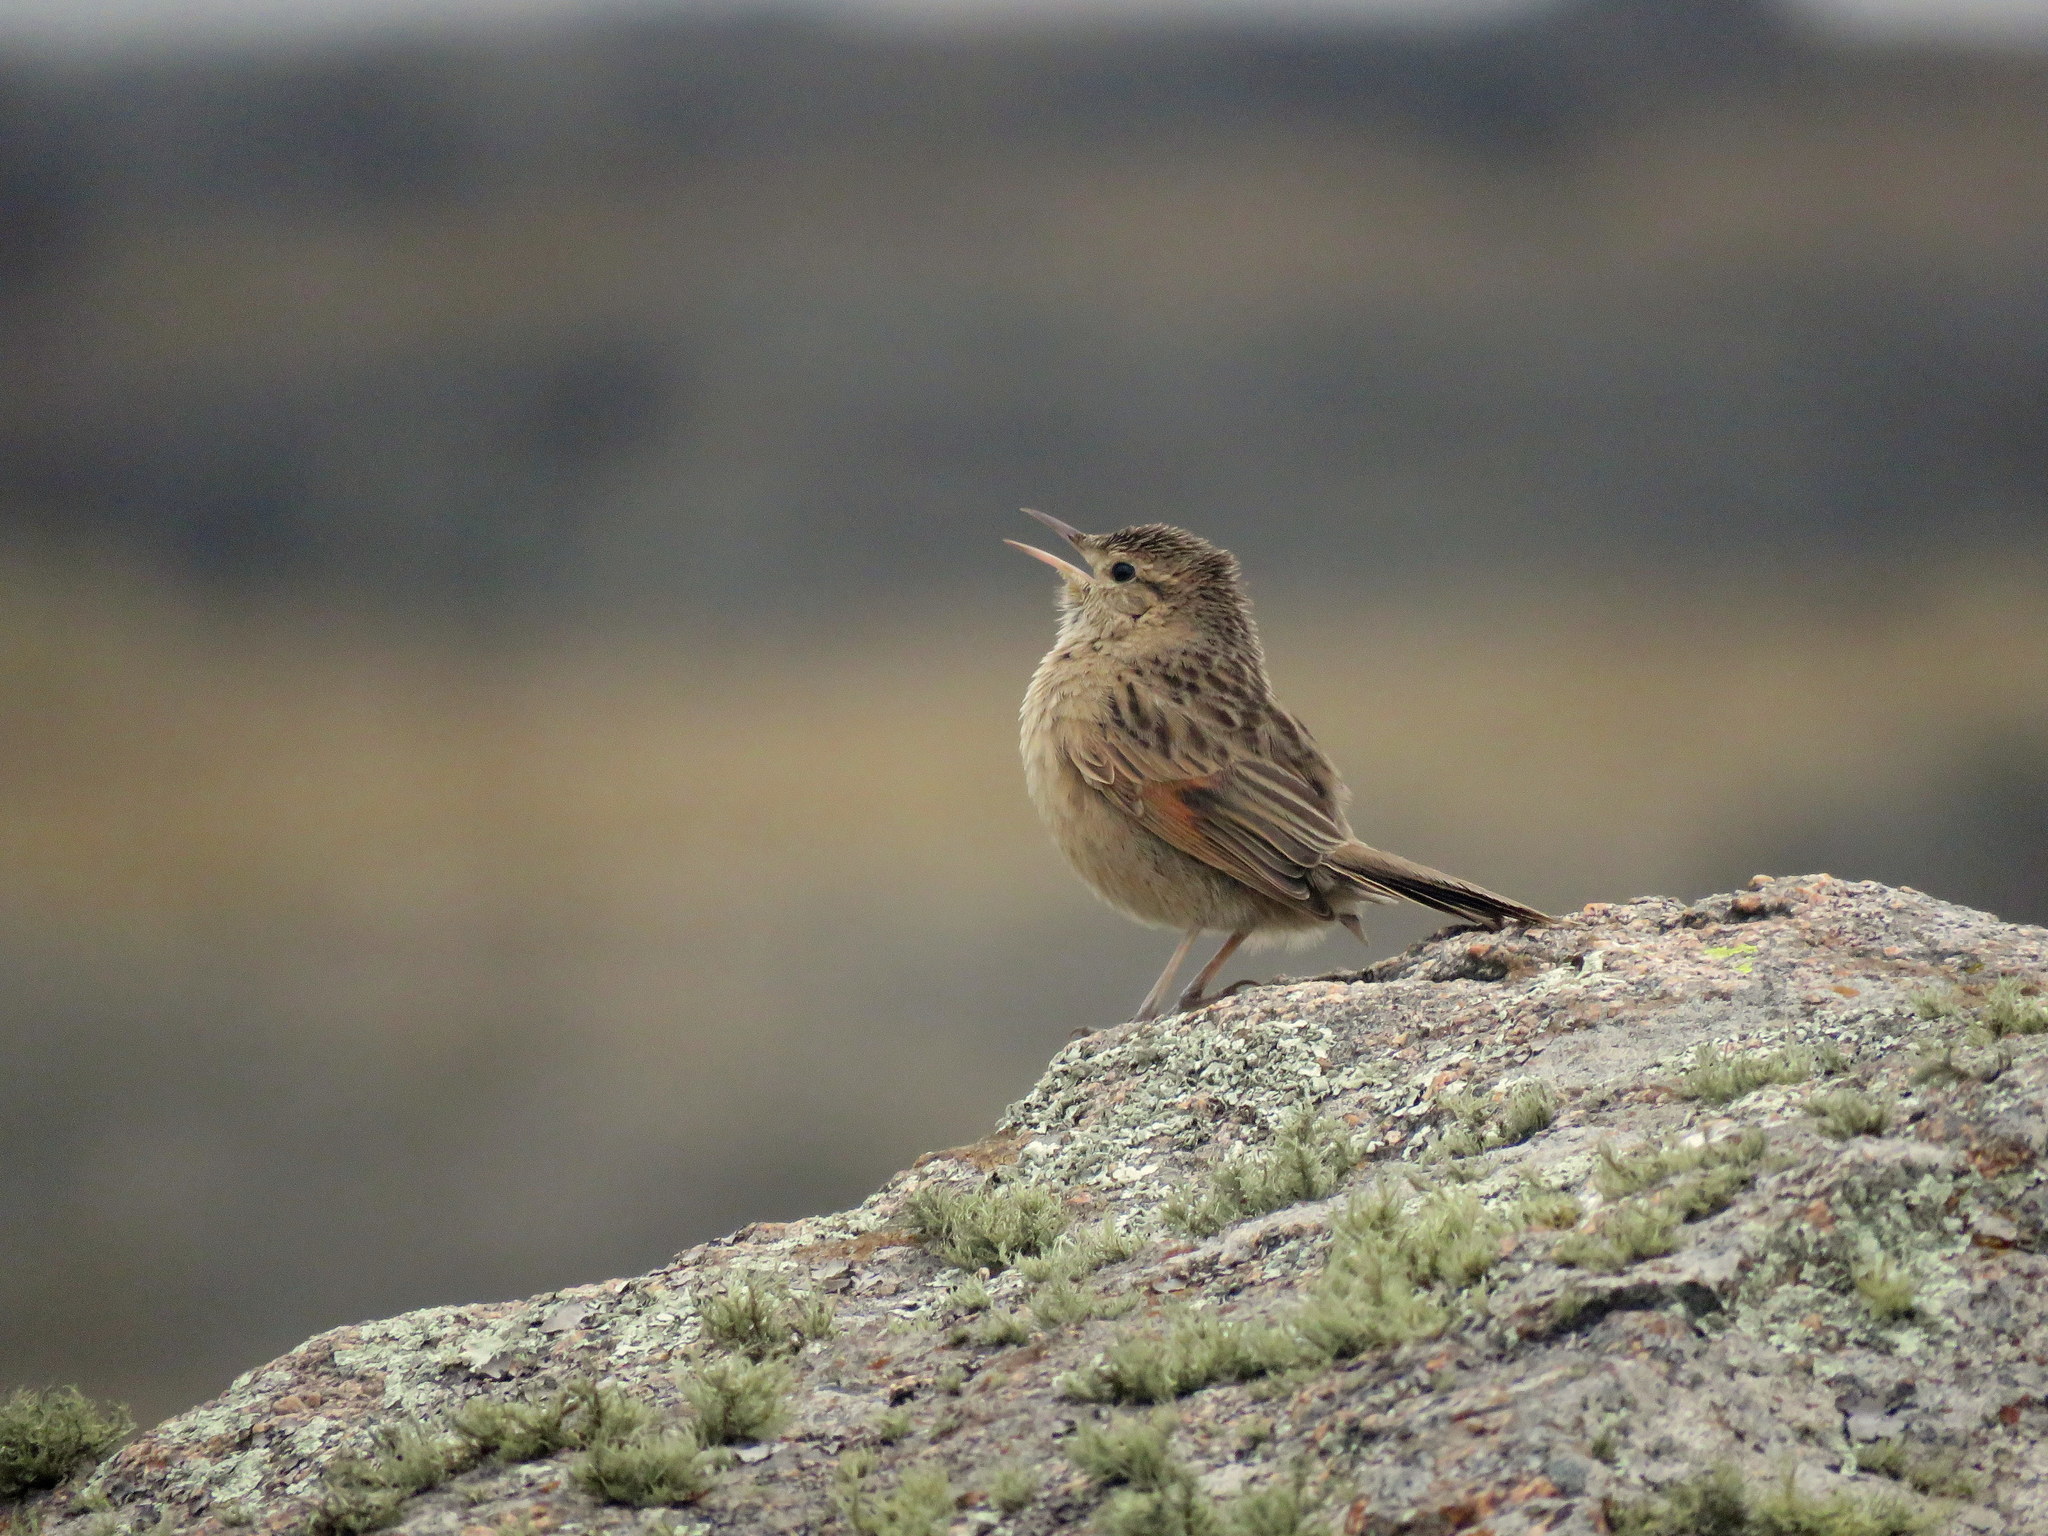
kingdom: Animalia
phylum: Chordata
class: Aves
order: Passeriformes
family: Furnariidae
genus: Asthenes
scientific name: Asthenes wyatti
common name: Streak-backed canastero
